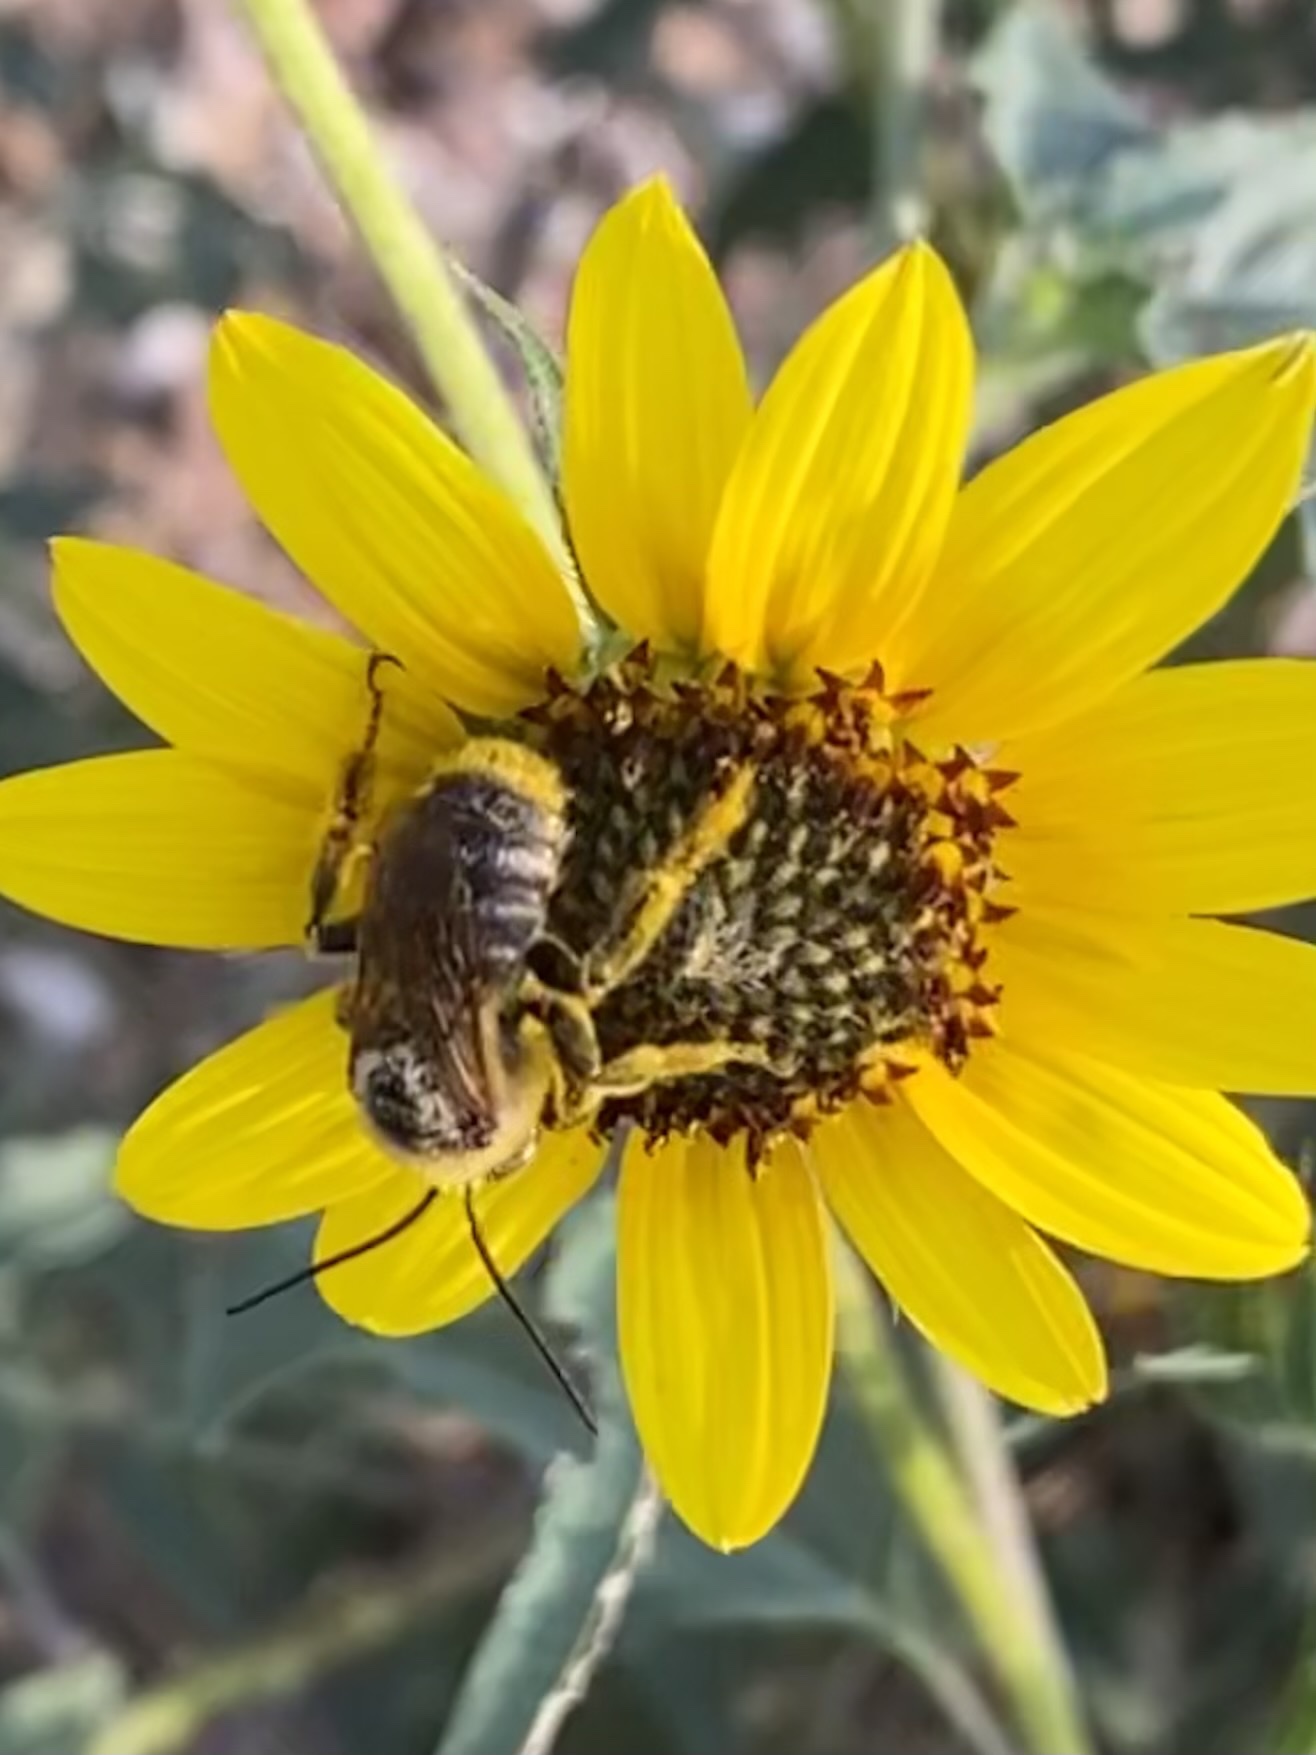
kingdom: Animalia
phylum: Arthropoda
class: Insecta
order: Hymenoptera
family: Apidae
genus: Svastra
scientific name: Svastra obliqua
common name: Oblique longhorn
